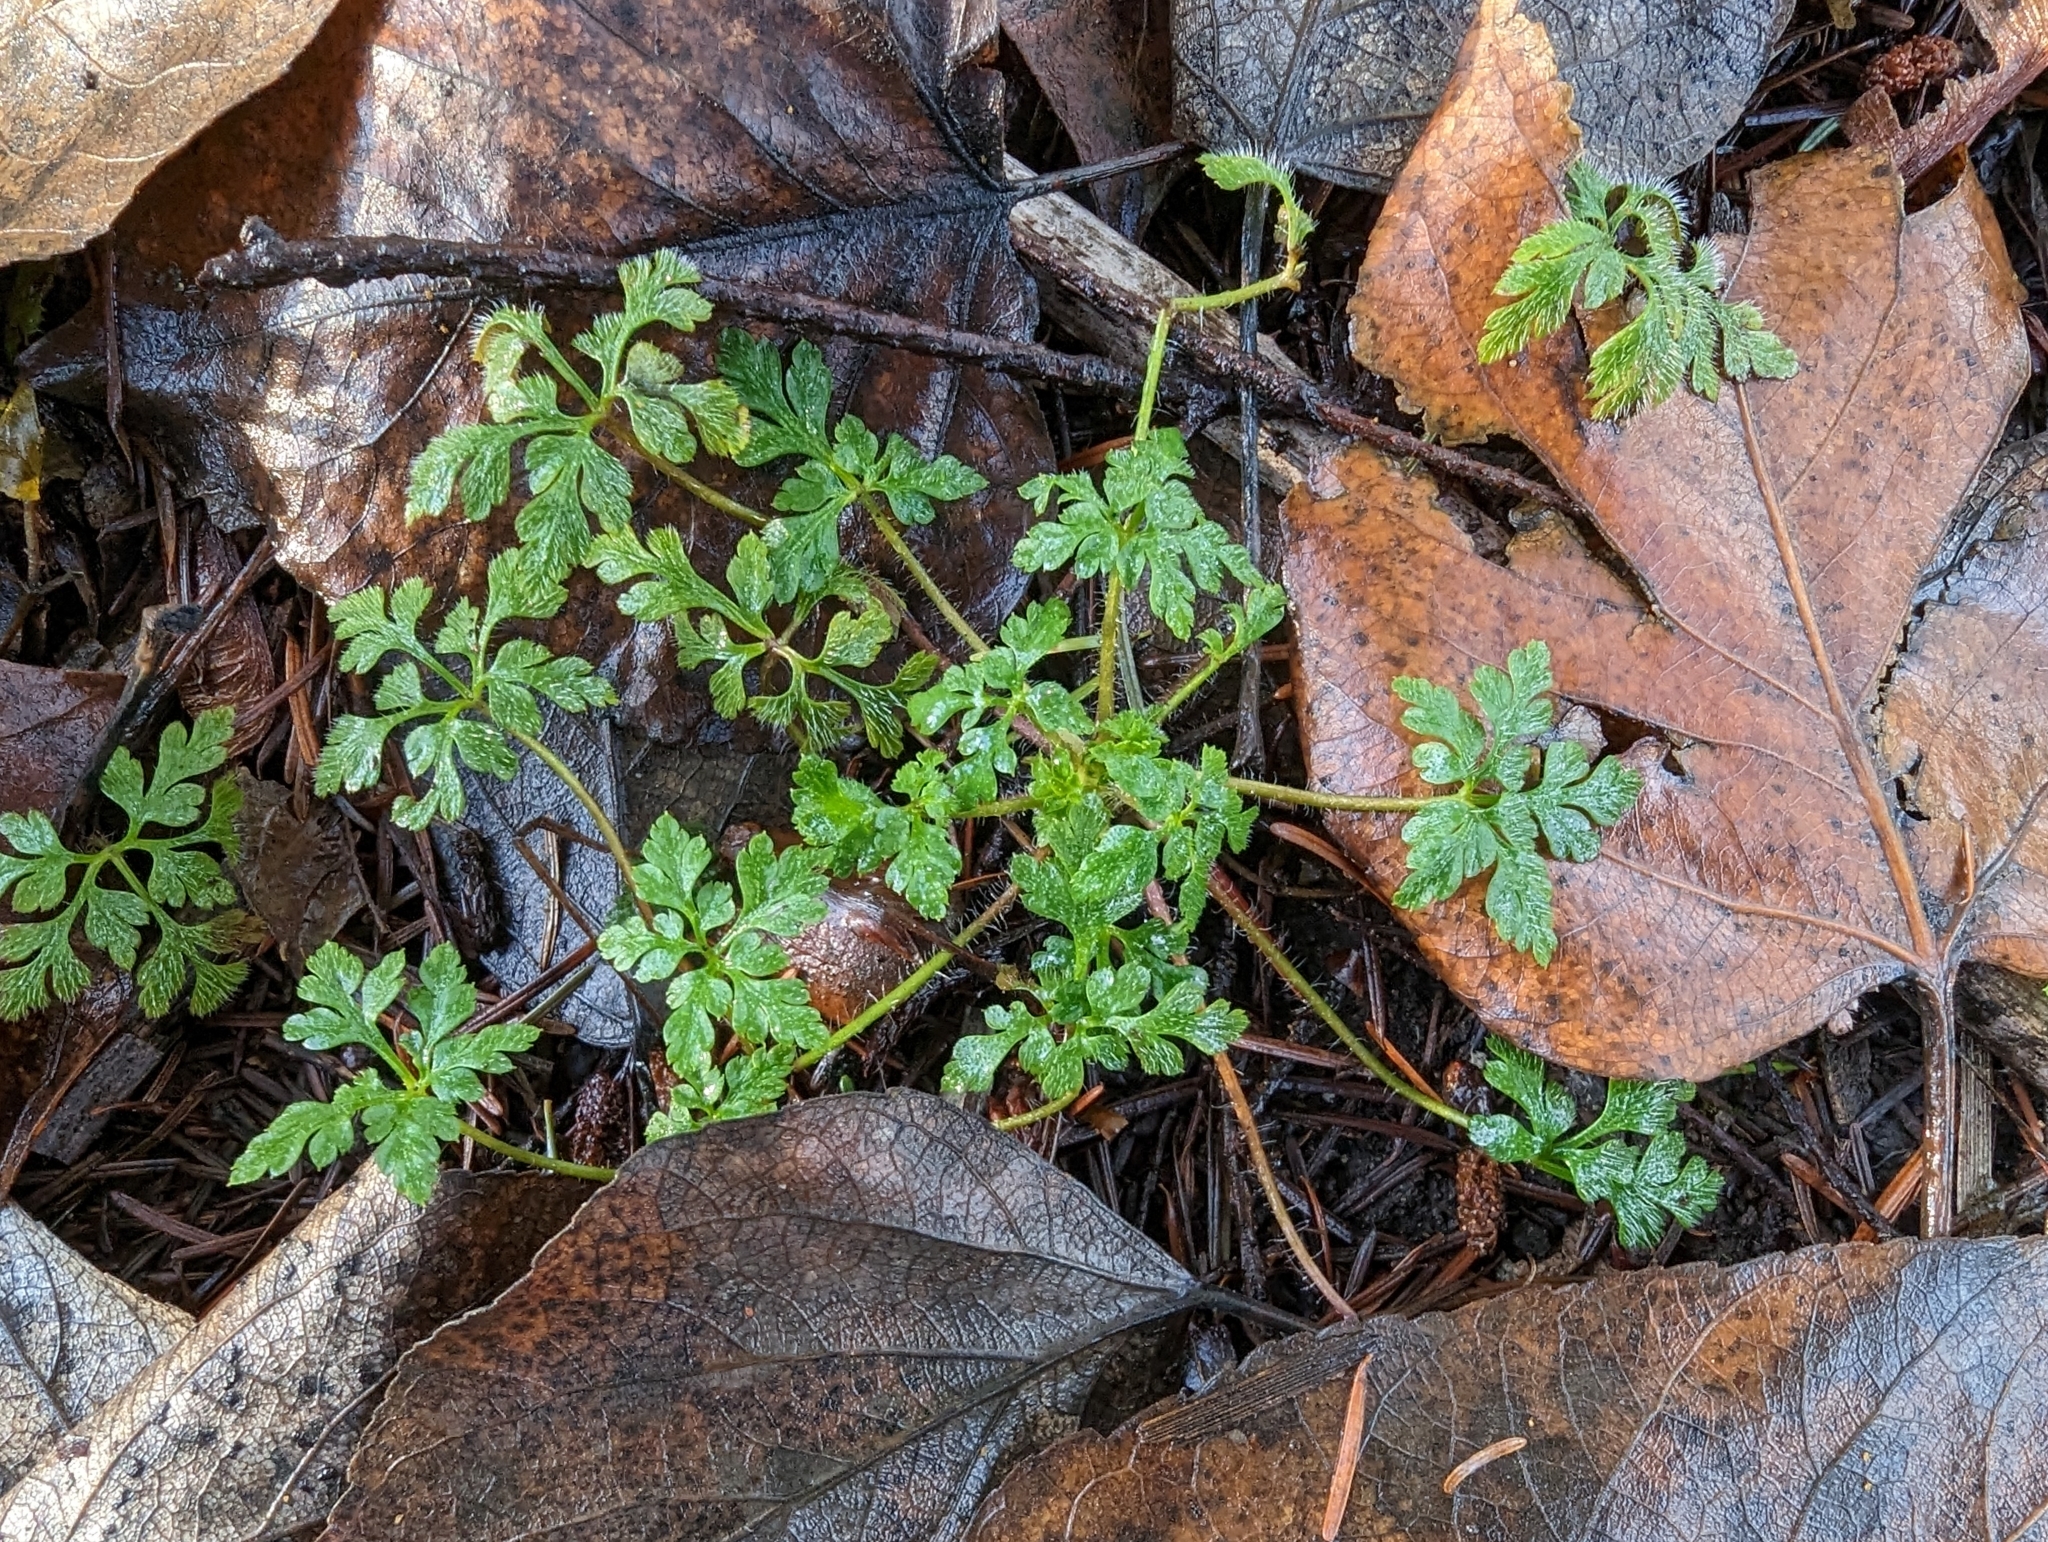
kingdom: Plantae
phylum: Tracheophyta
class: Magnoliopsida
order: Geraniales
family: Geraniaceae
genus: Geranium
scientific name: Geranium robertianum
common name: Herb-robert
